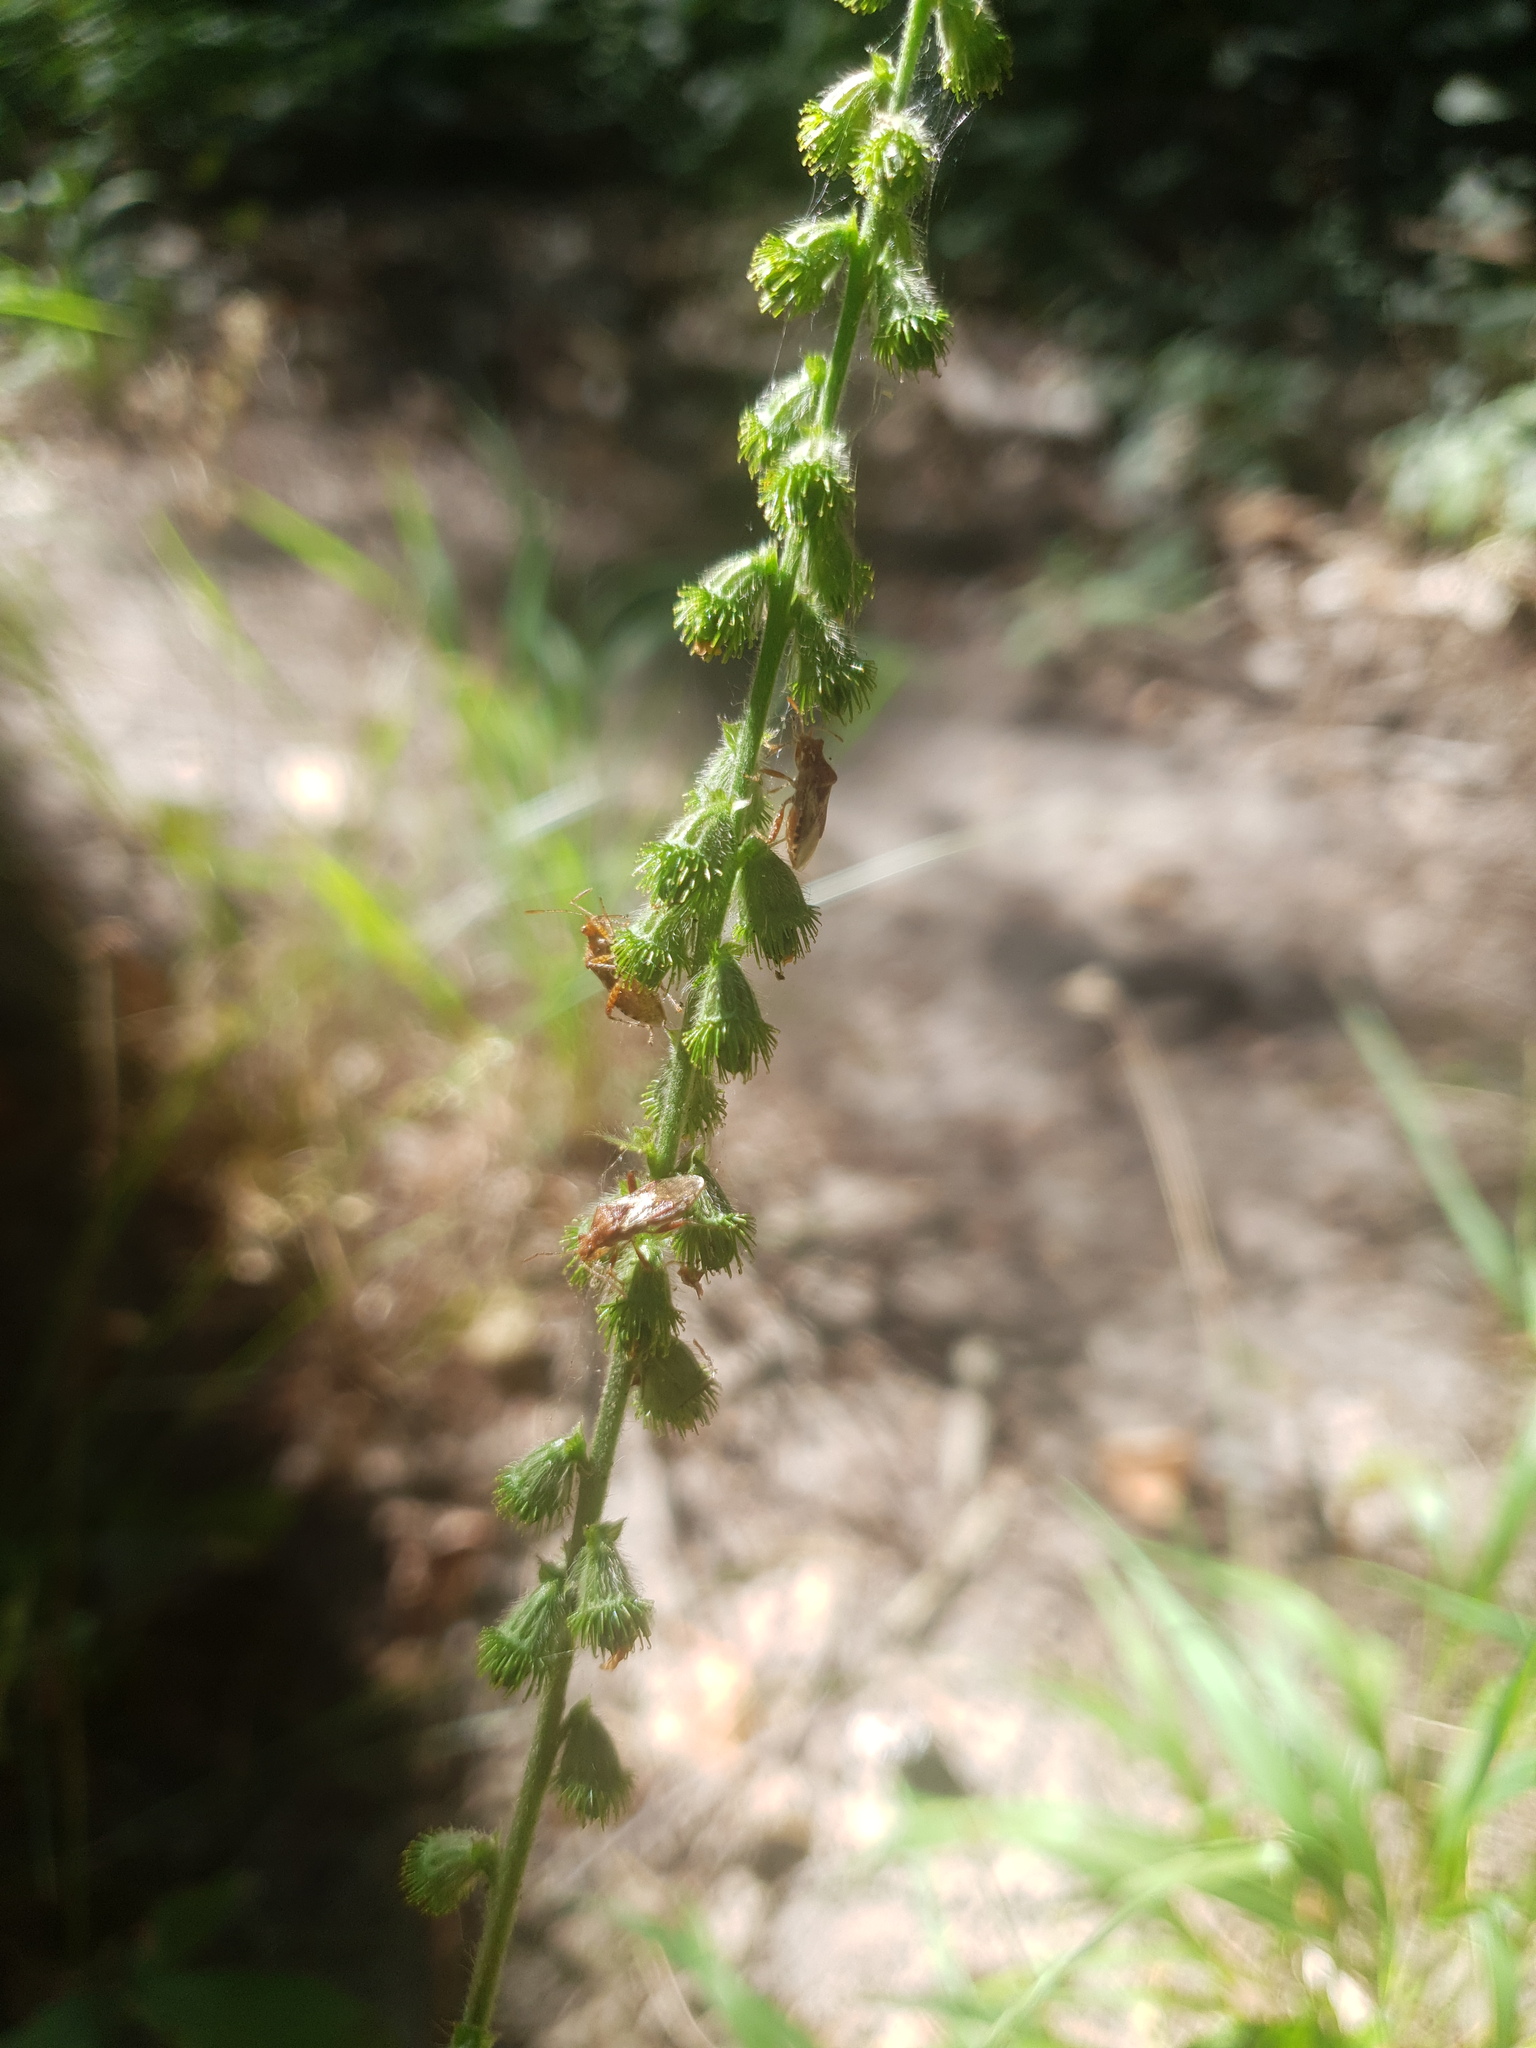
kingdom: Plantae
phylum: Tracheophyta
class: Magnoliopsida
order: Rosales
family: Rosaceae
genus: Agrimonia
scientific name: Agrimonia eupatoria
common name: Agrimony
